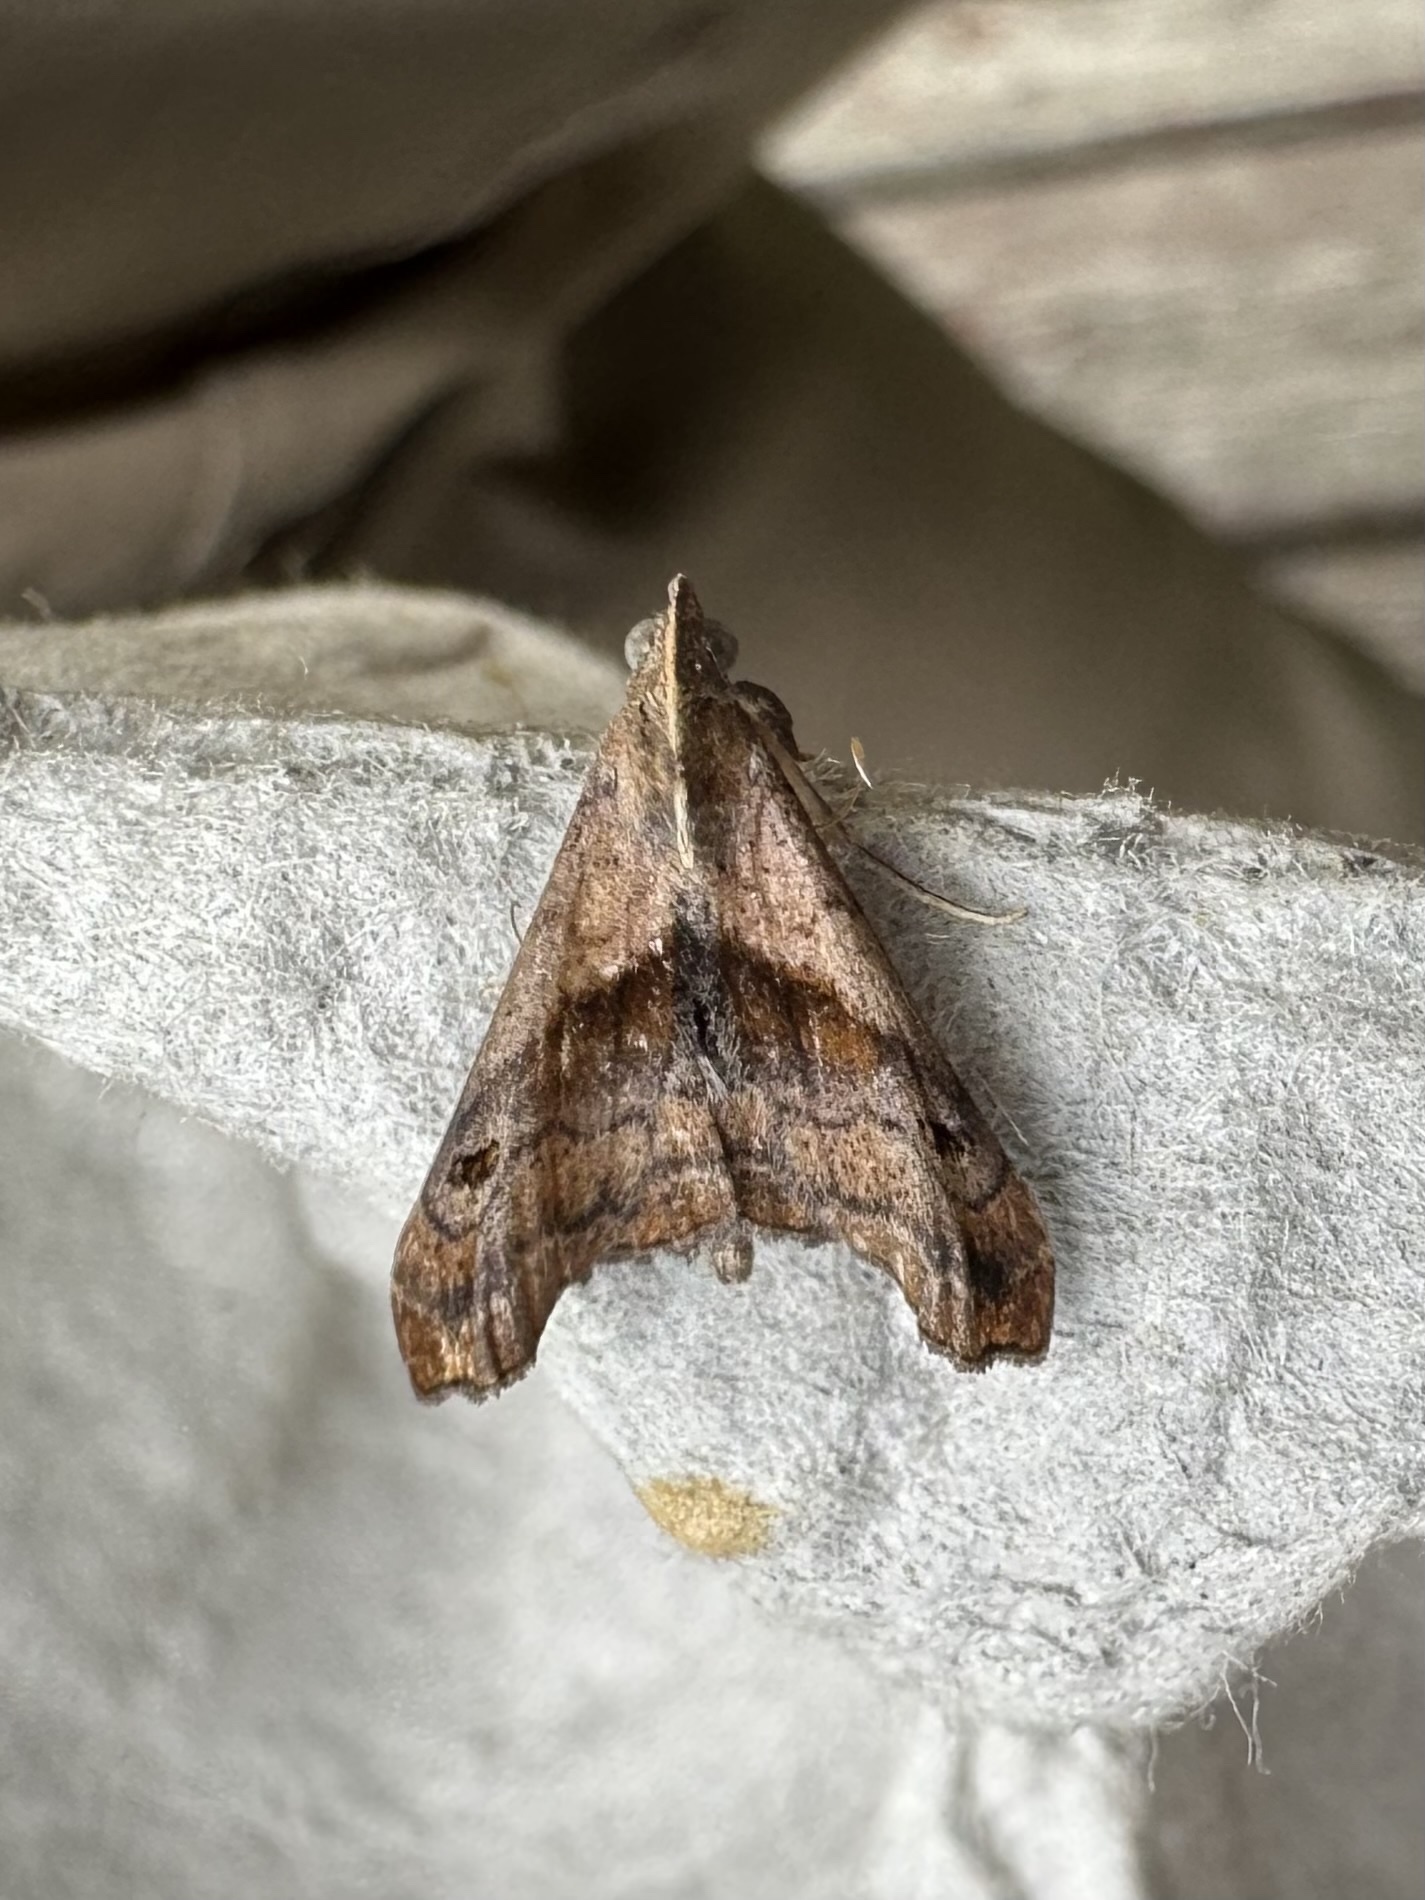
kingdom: Animalia
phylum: Arthropoda
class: Insecta
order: Lepidoptera
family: Erebidae
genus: Palthis
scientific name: Palthis angulalis
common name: Dark-spotted palthis moth
